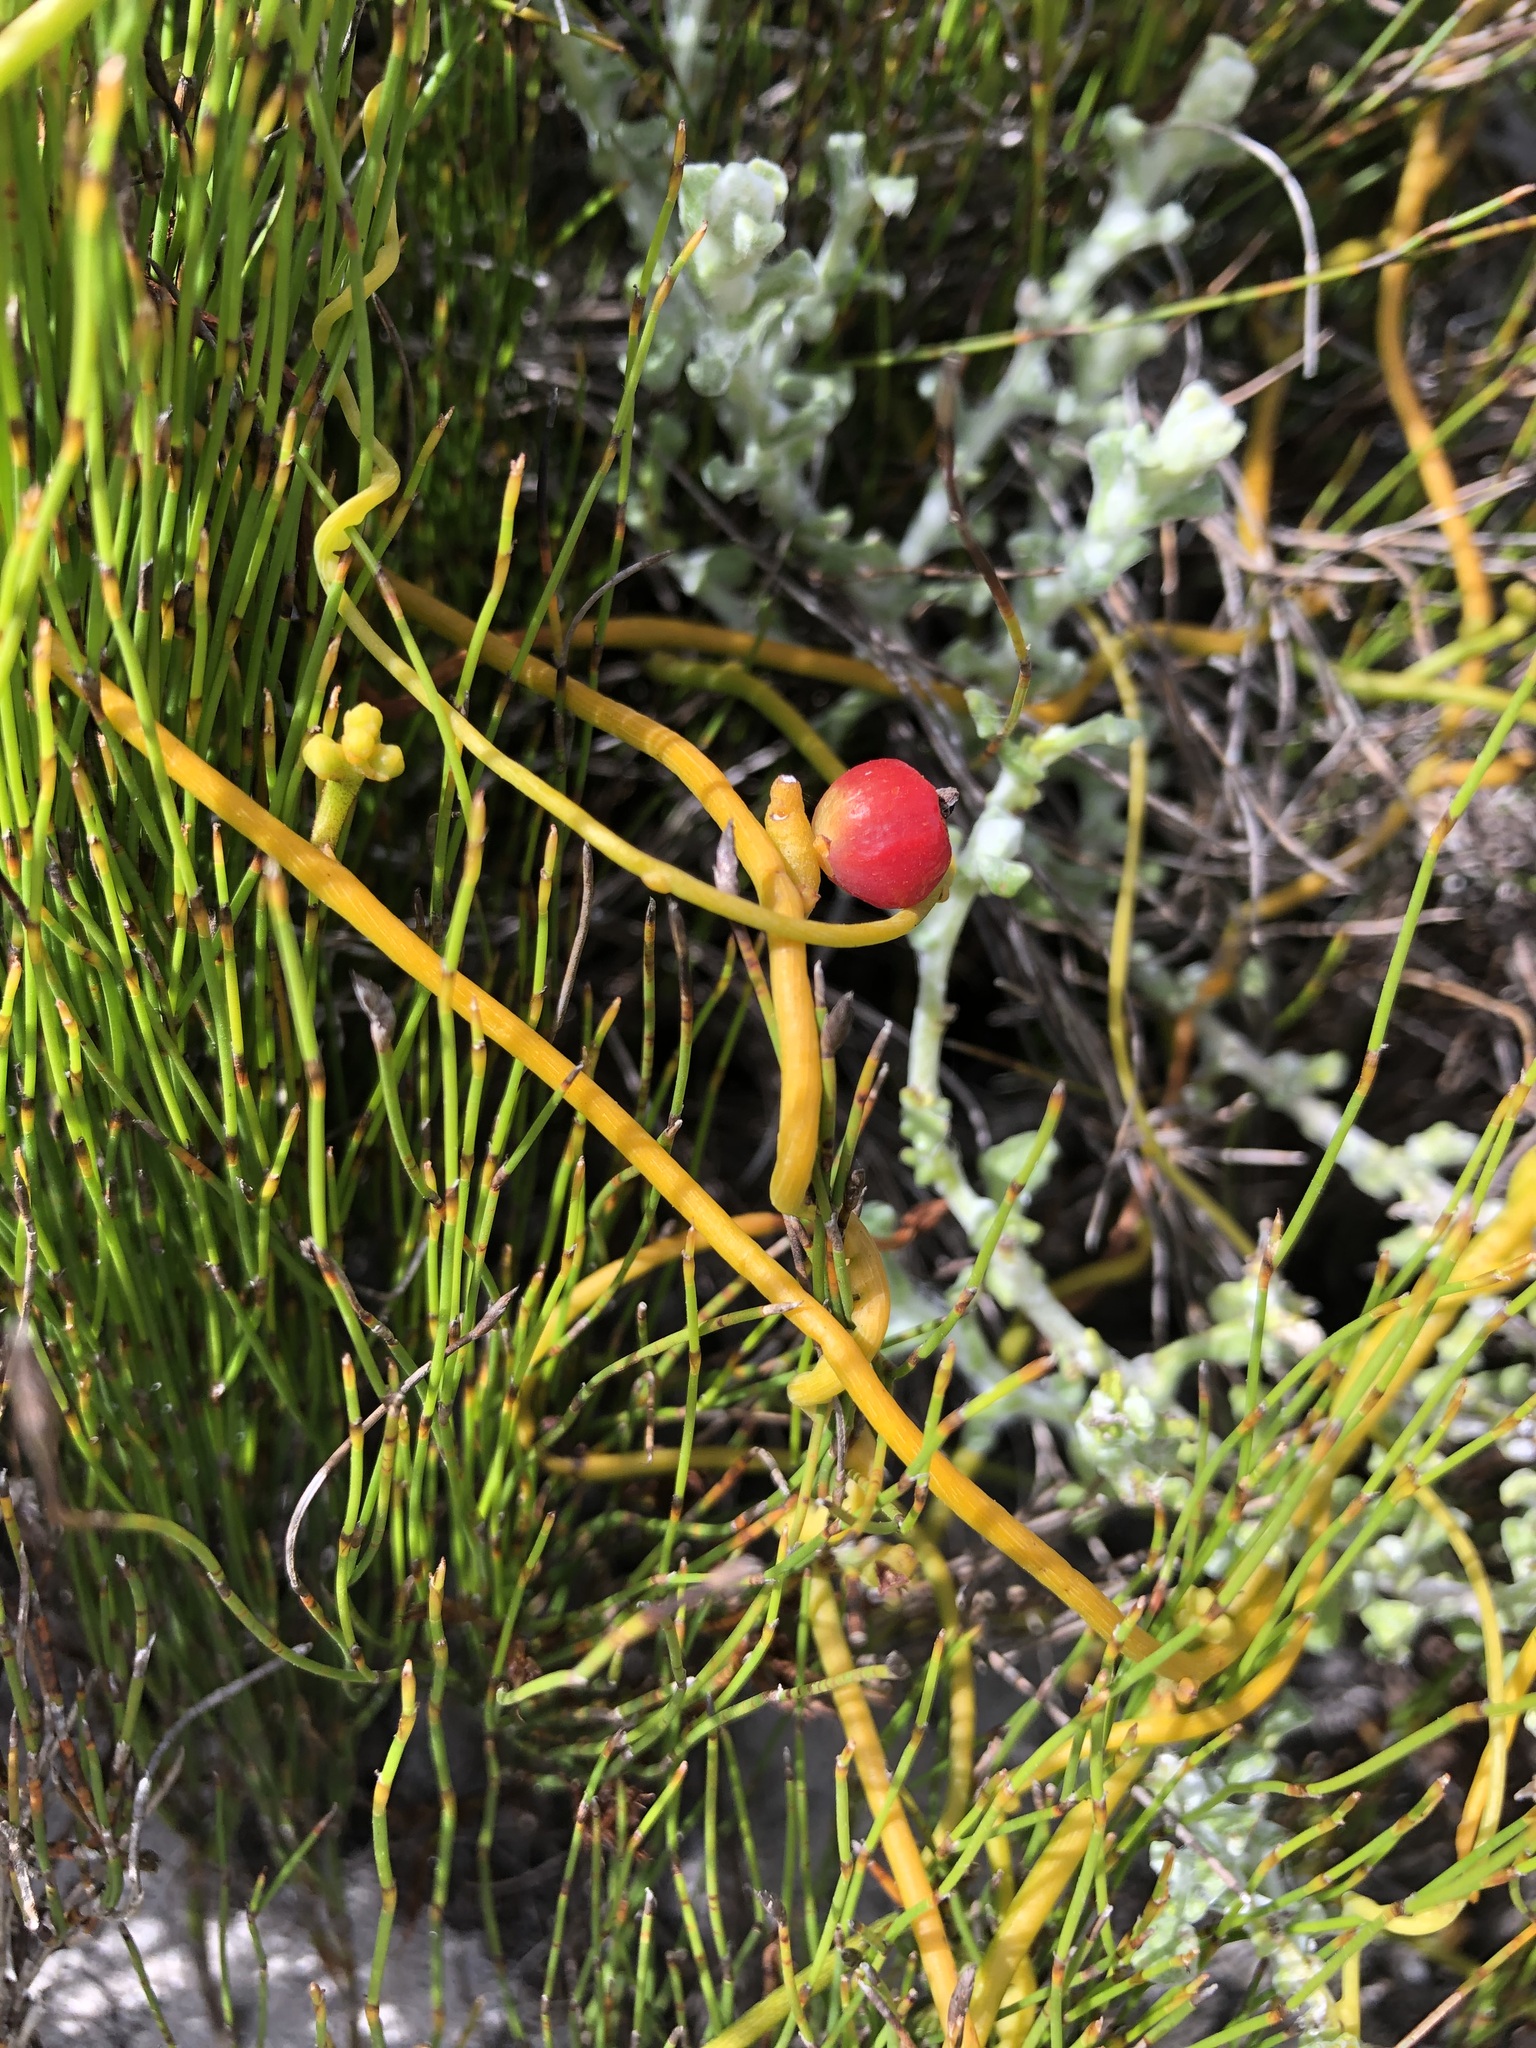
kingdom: Plantae
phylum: Tracheophyta
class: Magnoliopsida
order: Laurales
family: Lauraceae
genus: Cassytha
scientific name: Cassytha ciliolata
